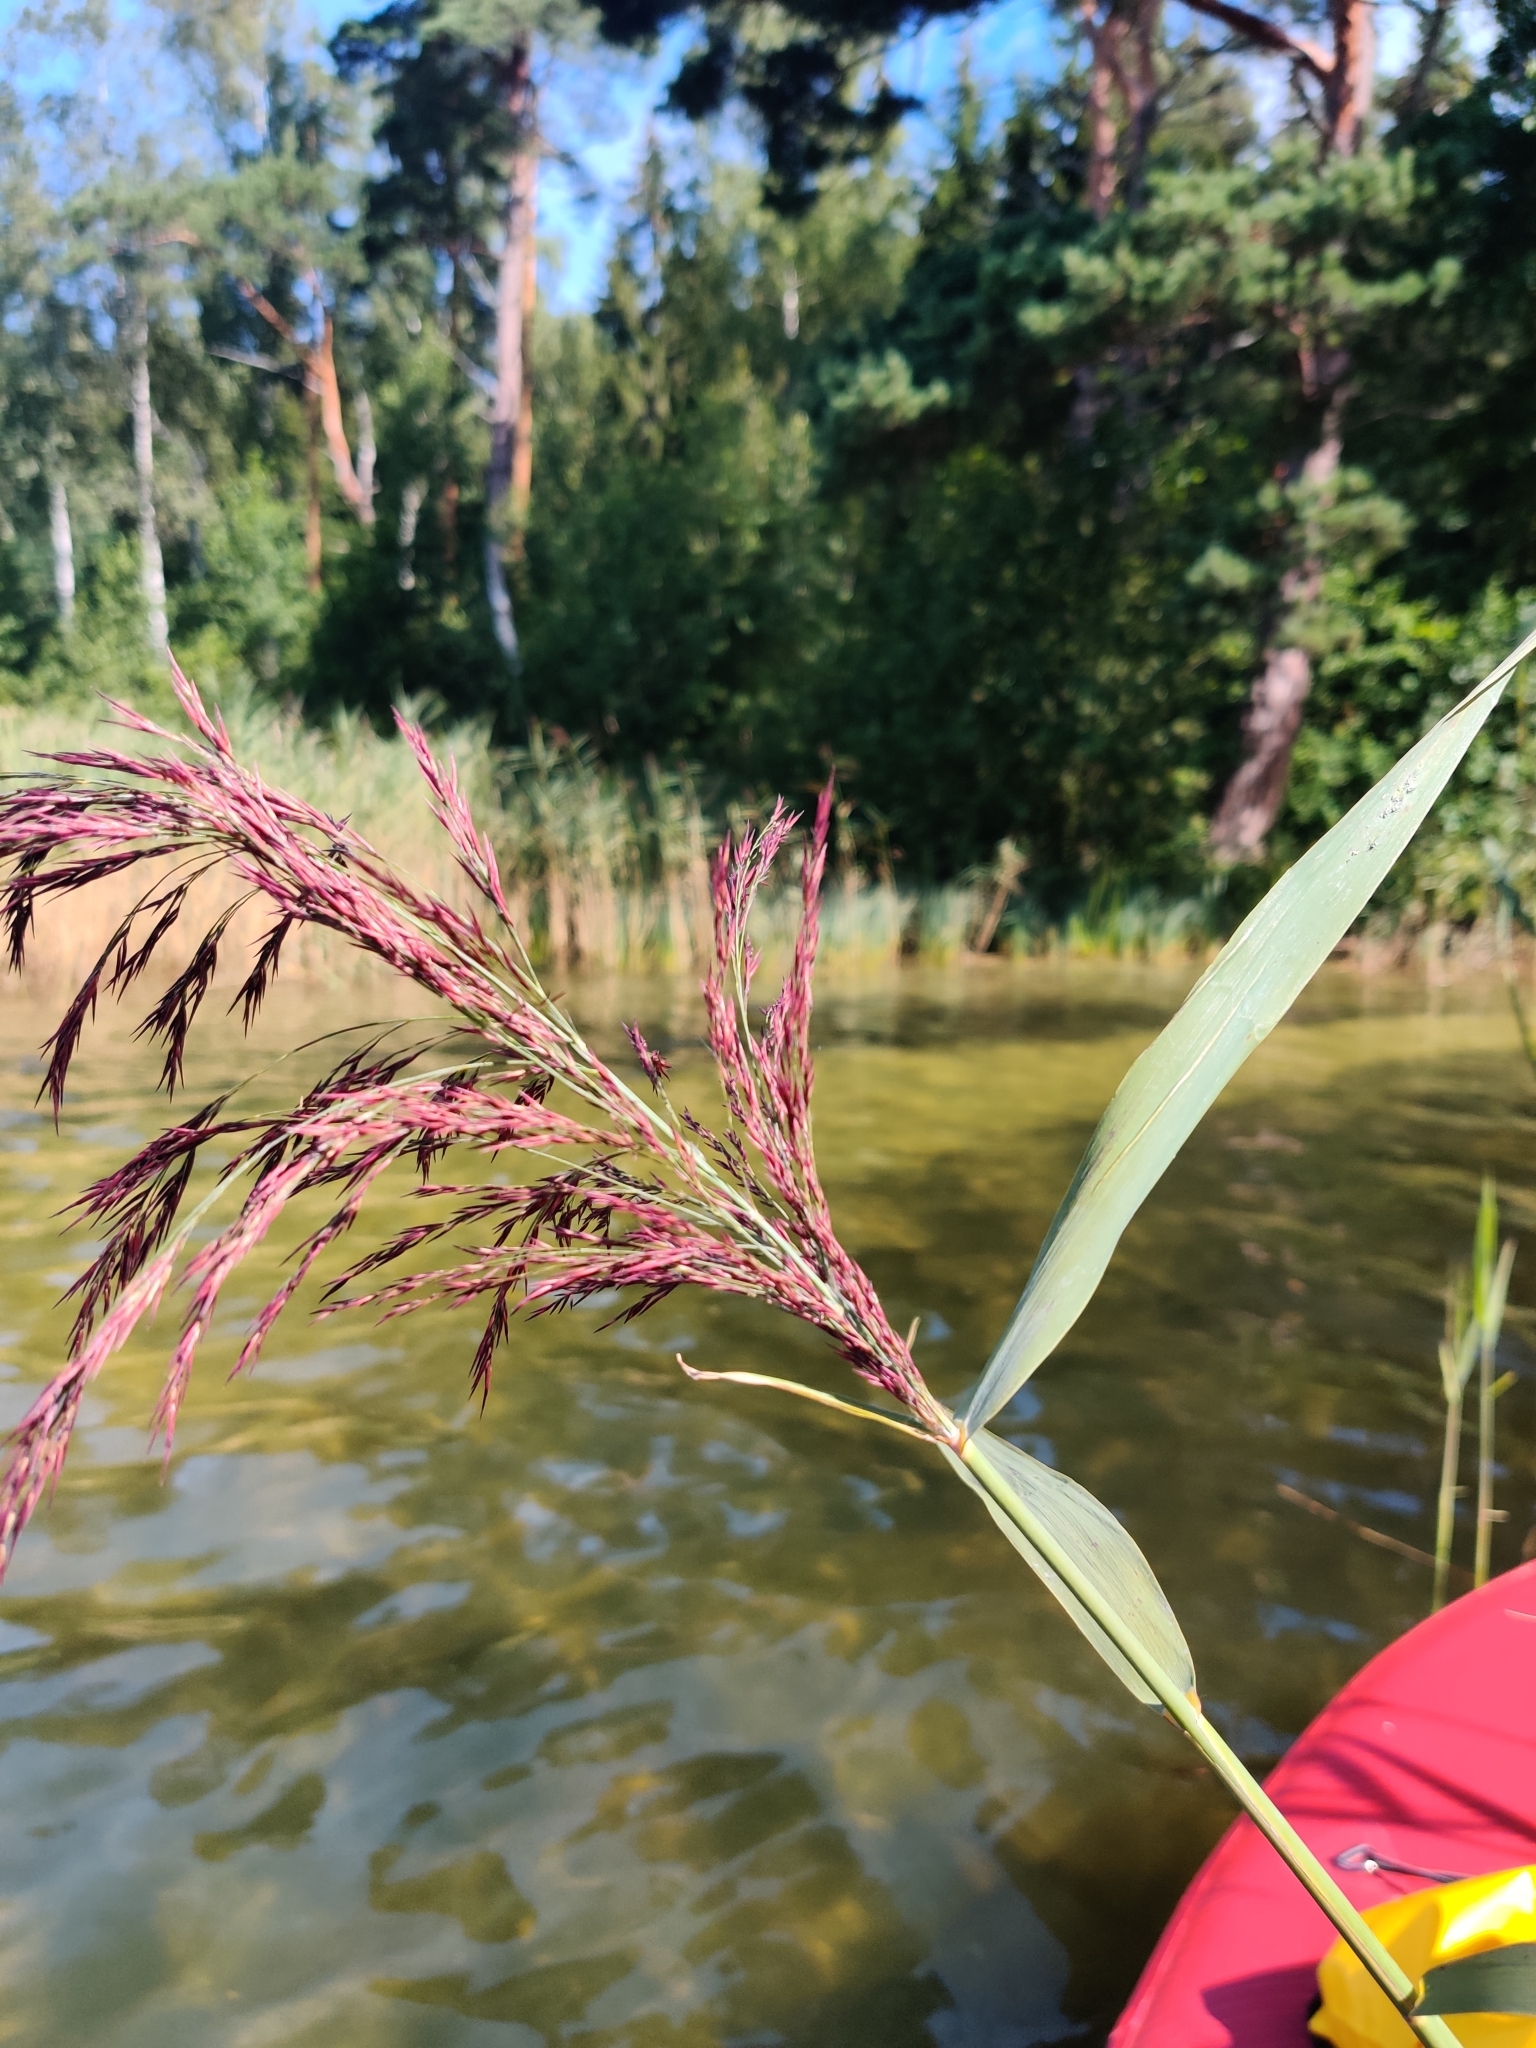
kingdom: Plantae
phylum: Tracheophyta
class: Liliopsida
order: Poales
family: Poaceae
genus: Phragmites
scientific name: Phragmites australis
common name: Common reed
